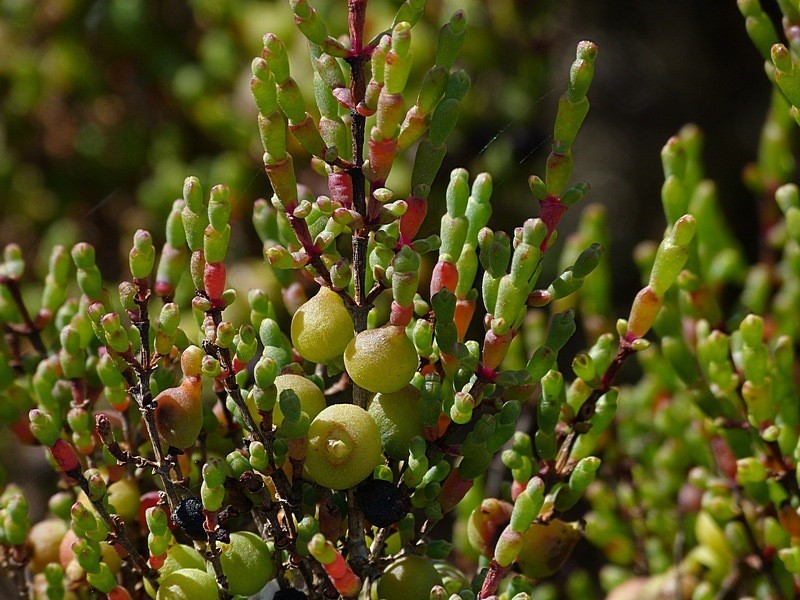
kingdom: Plantae
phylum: Tracheophyta
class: Magnoliopsida
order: Caryophyllales
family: Amaranthaceae
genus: Tecticornia
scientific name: Tecticornia arbuscula
